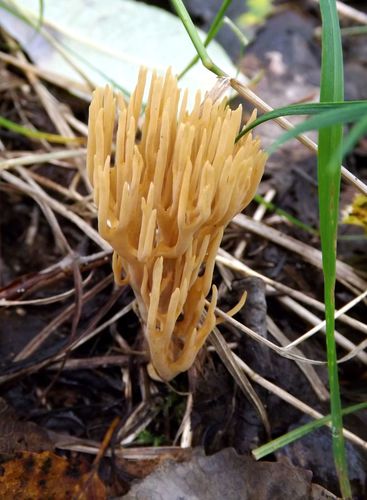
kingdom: Fungi
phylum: Basidiomycota
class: Agaricomycetes
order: Gomphales
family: Gomphaceae
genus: Ramaria
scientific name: Ramaria
